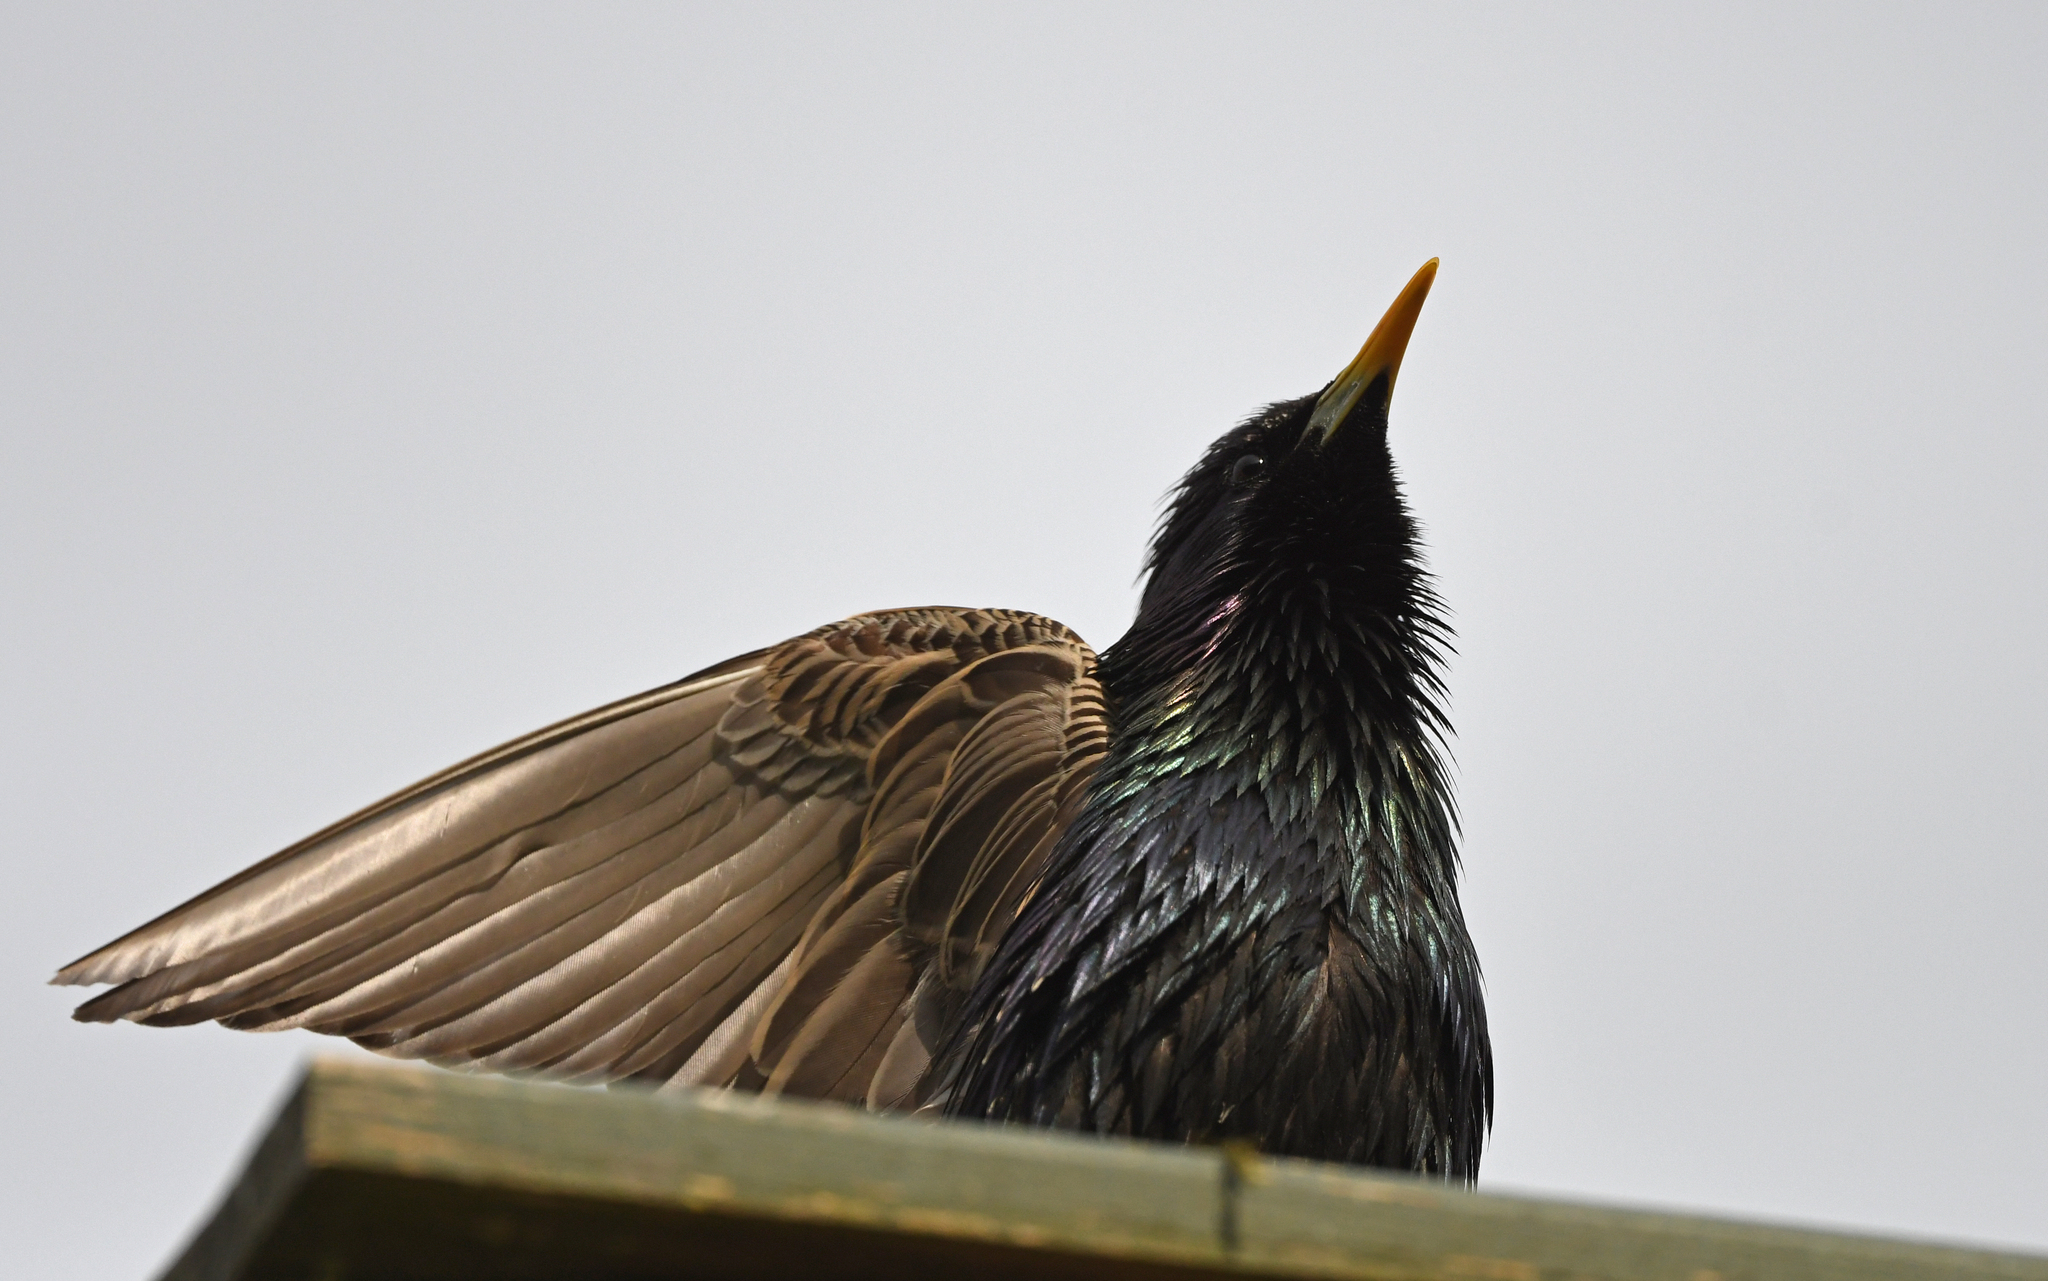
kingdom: Animalia
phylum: Chordata
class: Aves
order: Passeriformes
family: Sturnidae
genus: Sturnus
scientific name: Sturnus vulgaris
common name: Common starling
